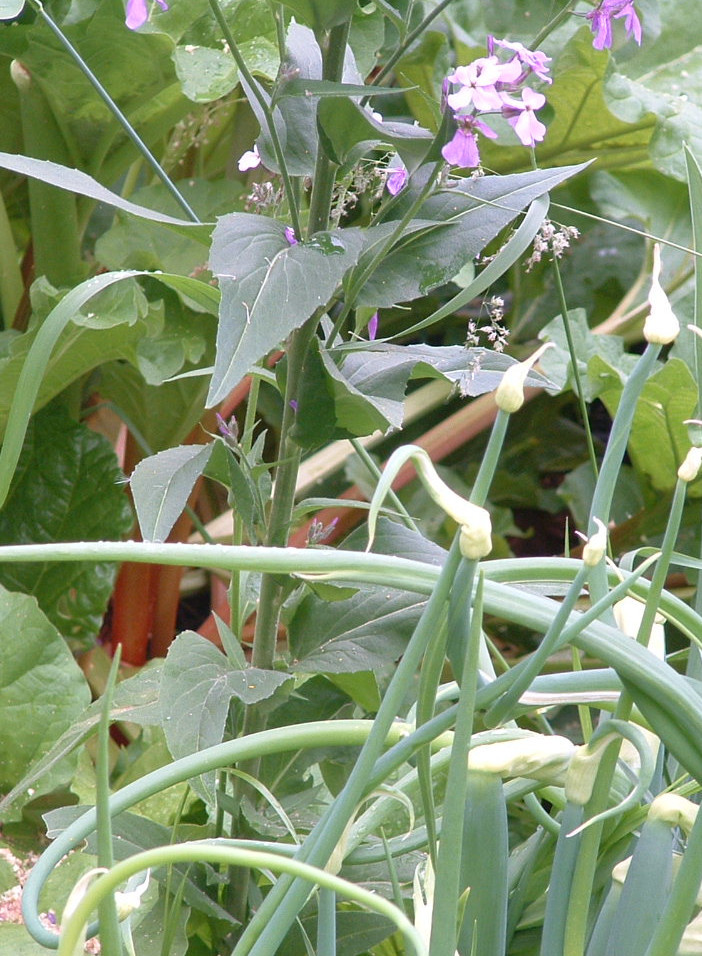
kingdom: Plantae
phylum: Tracheophyta
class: Magnoliopsida
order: Brassicales
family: Brassicaceae
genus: Hesperis
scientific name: Hesperis matronalis
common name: Dame's-violet
